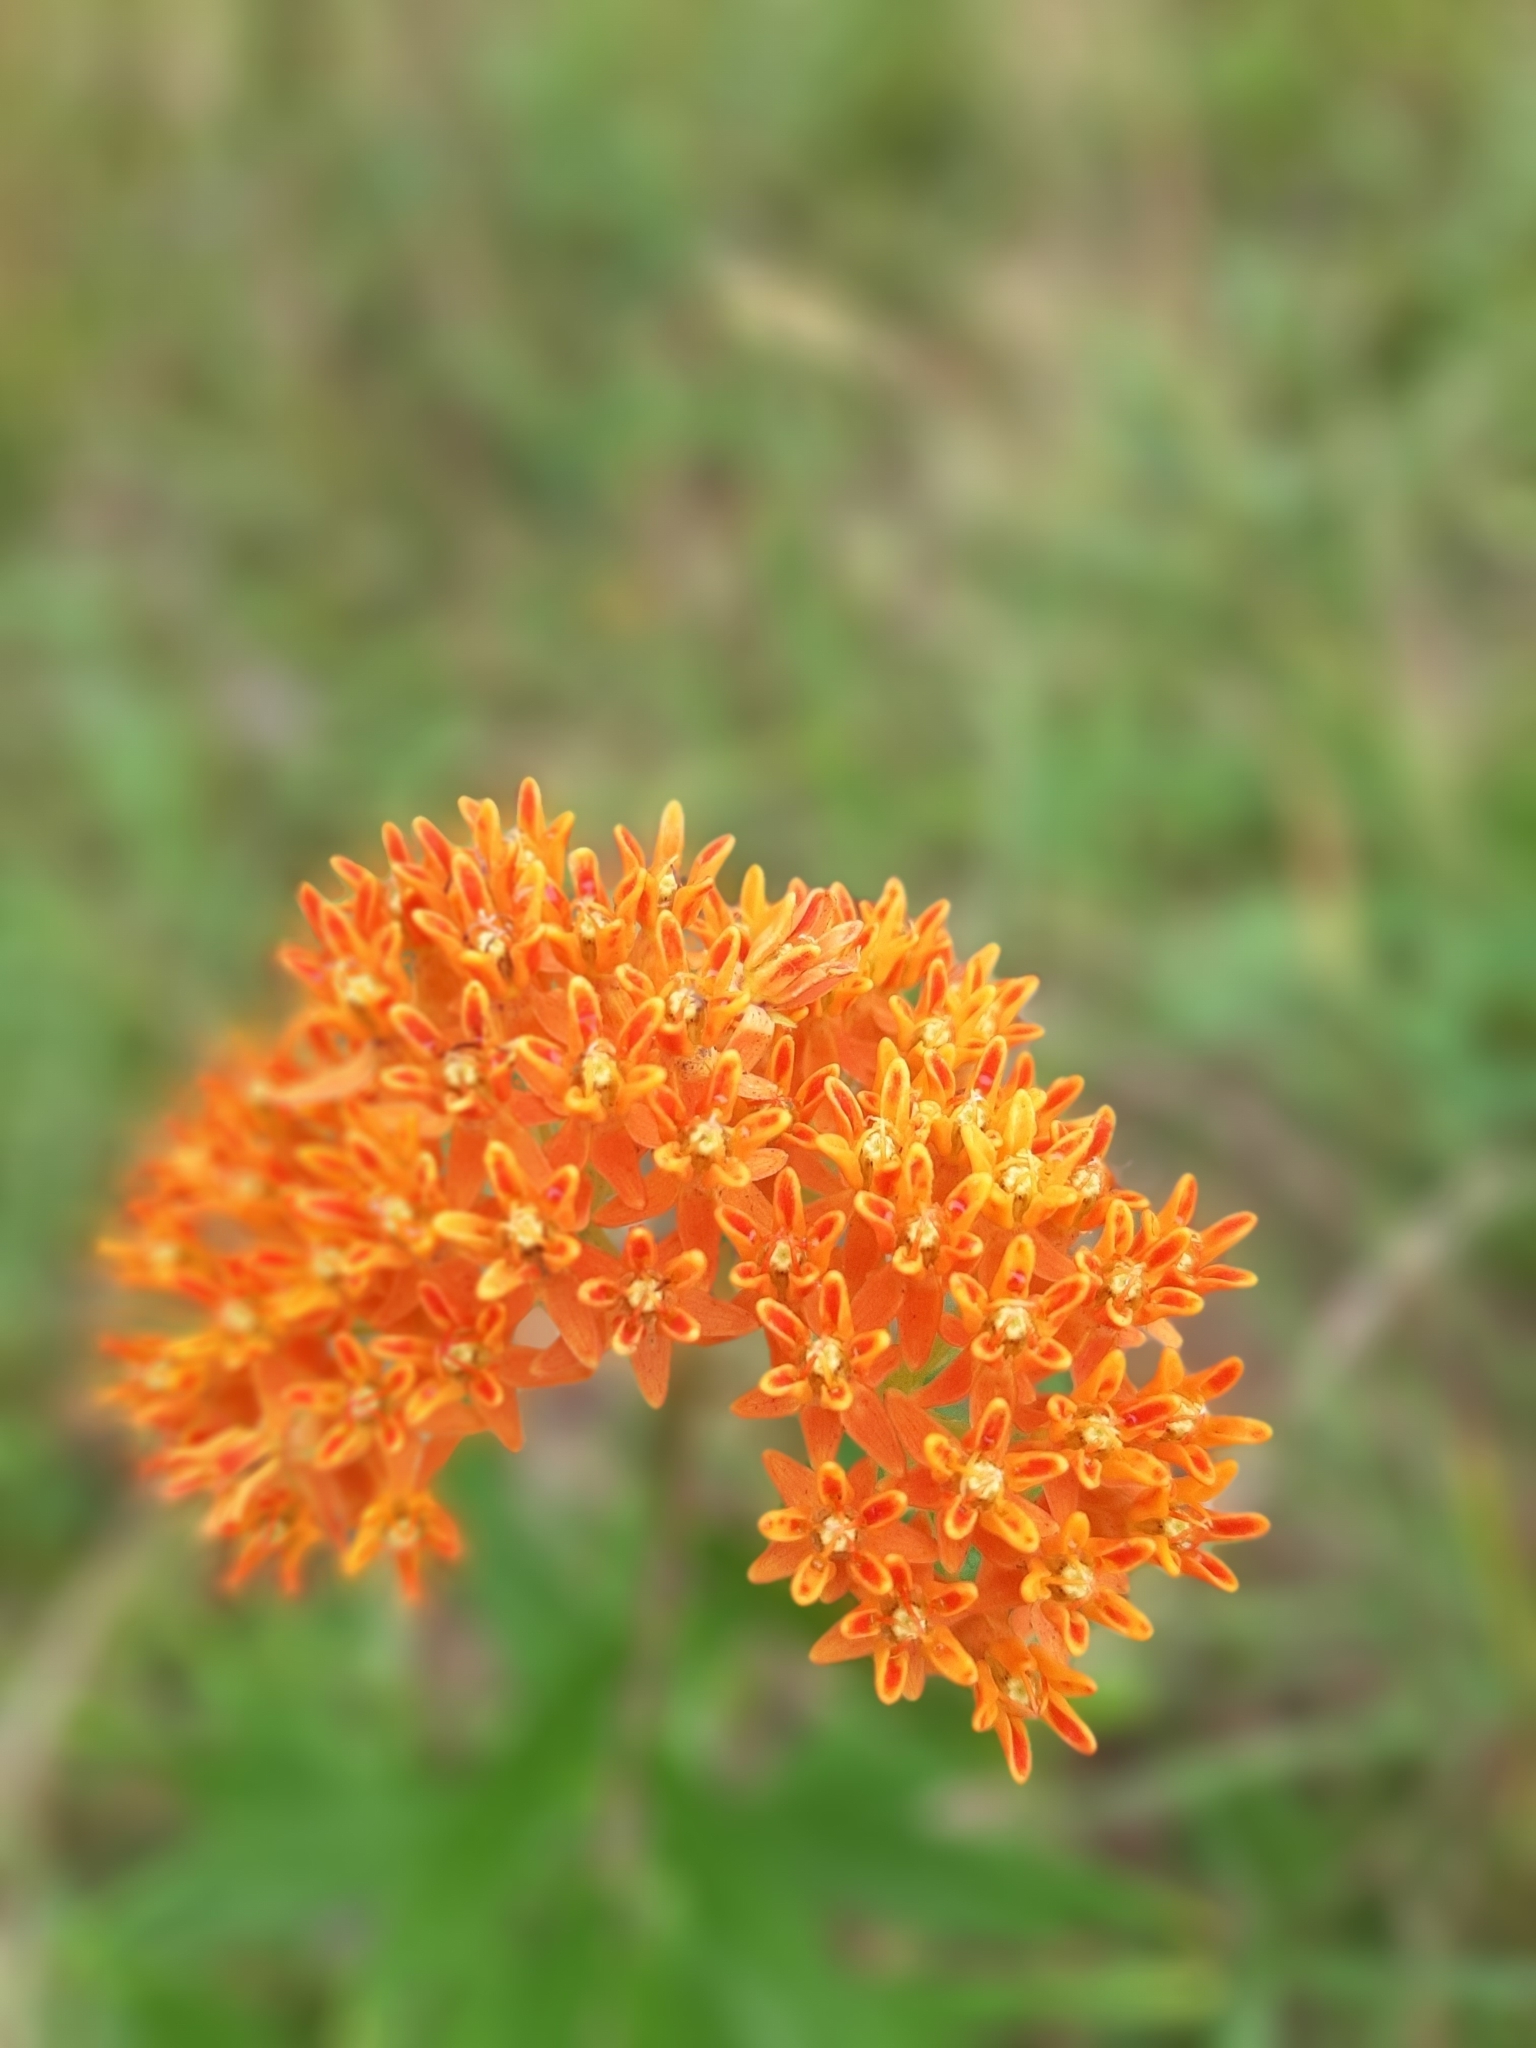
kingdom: Plantae
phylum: Tracheophyta
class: Magnoliopsida
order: Gentianales
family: Apocynaceae
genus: Asclepias
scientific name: Asclepias tuberosa
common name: Butterfly milkweed
